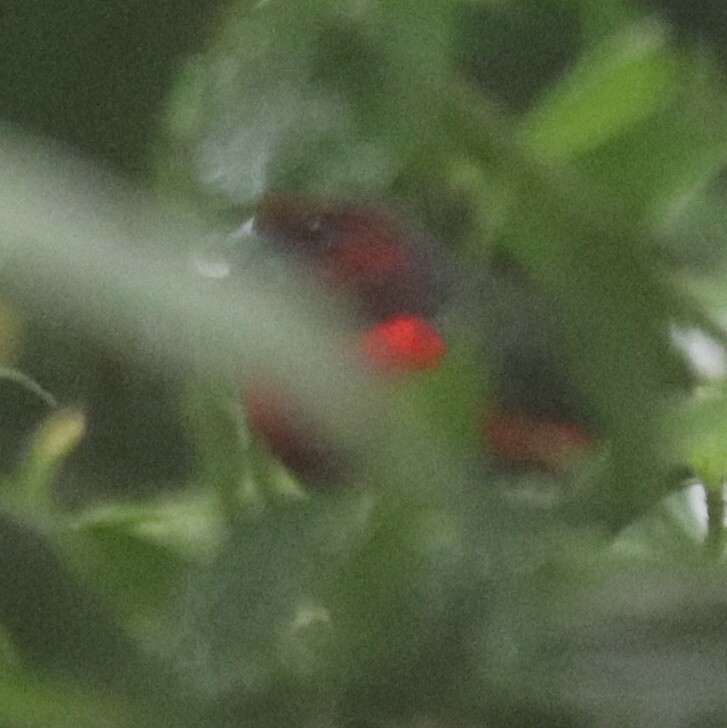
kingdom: Animalia
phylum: Chordata
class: Aves
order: Passeriformes
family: Estrildidae
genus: Spermophaga
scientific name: Spermophaga haematina
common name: Western bluebill
